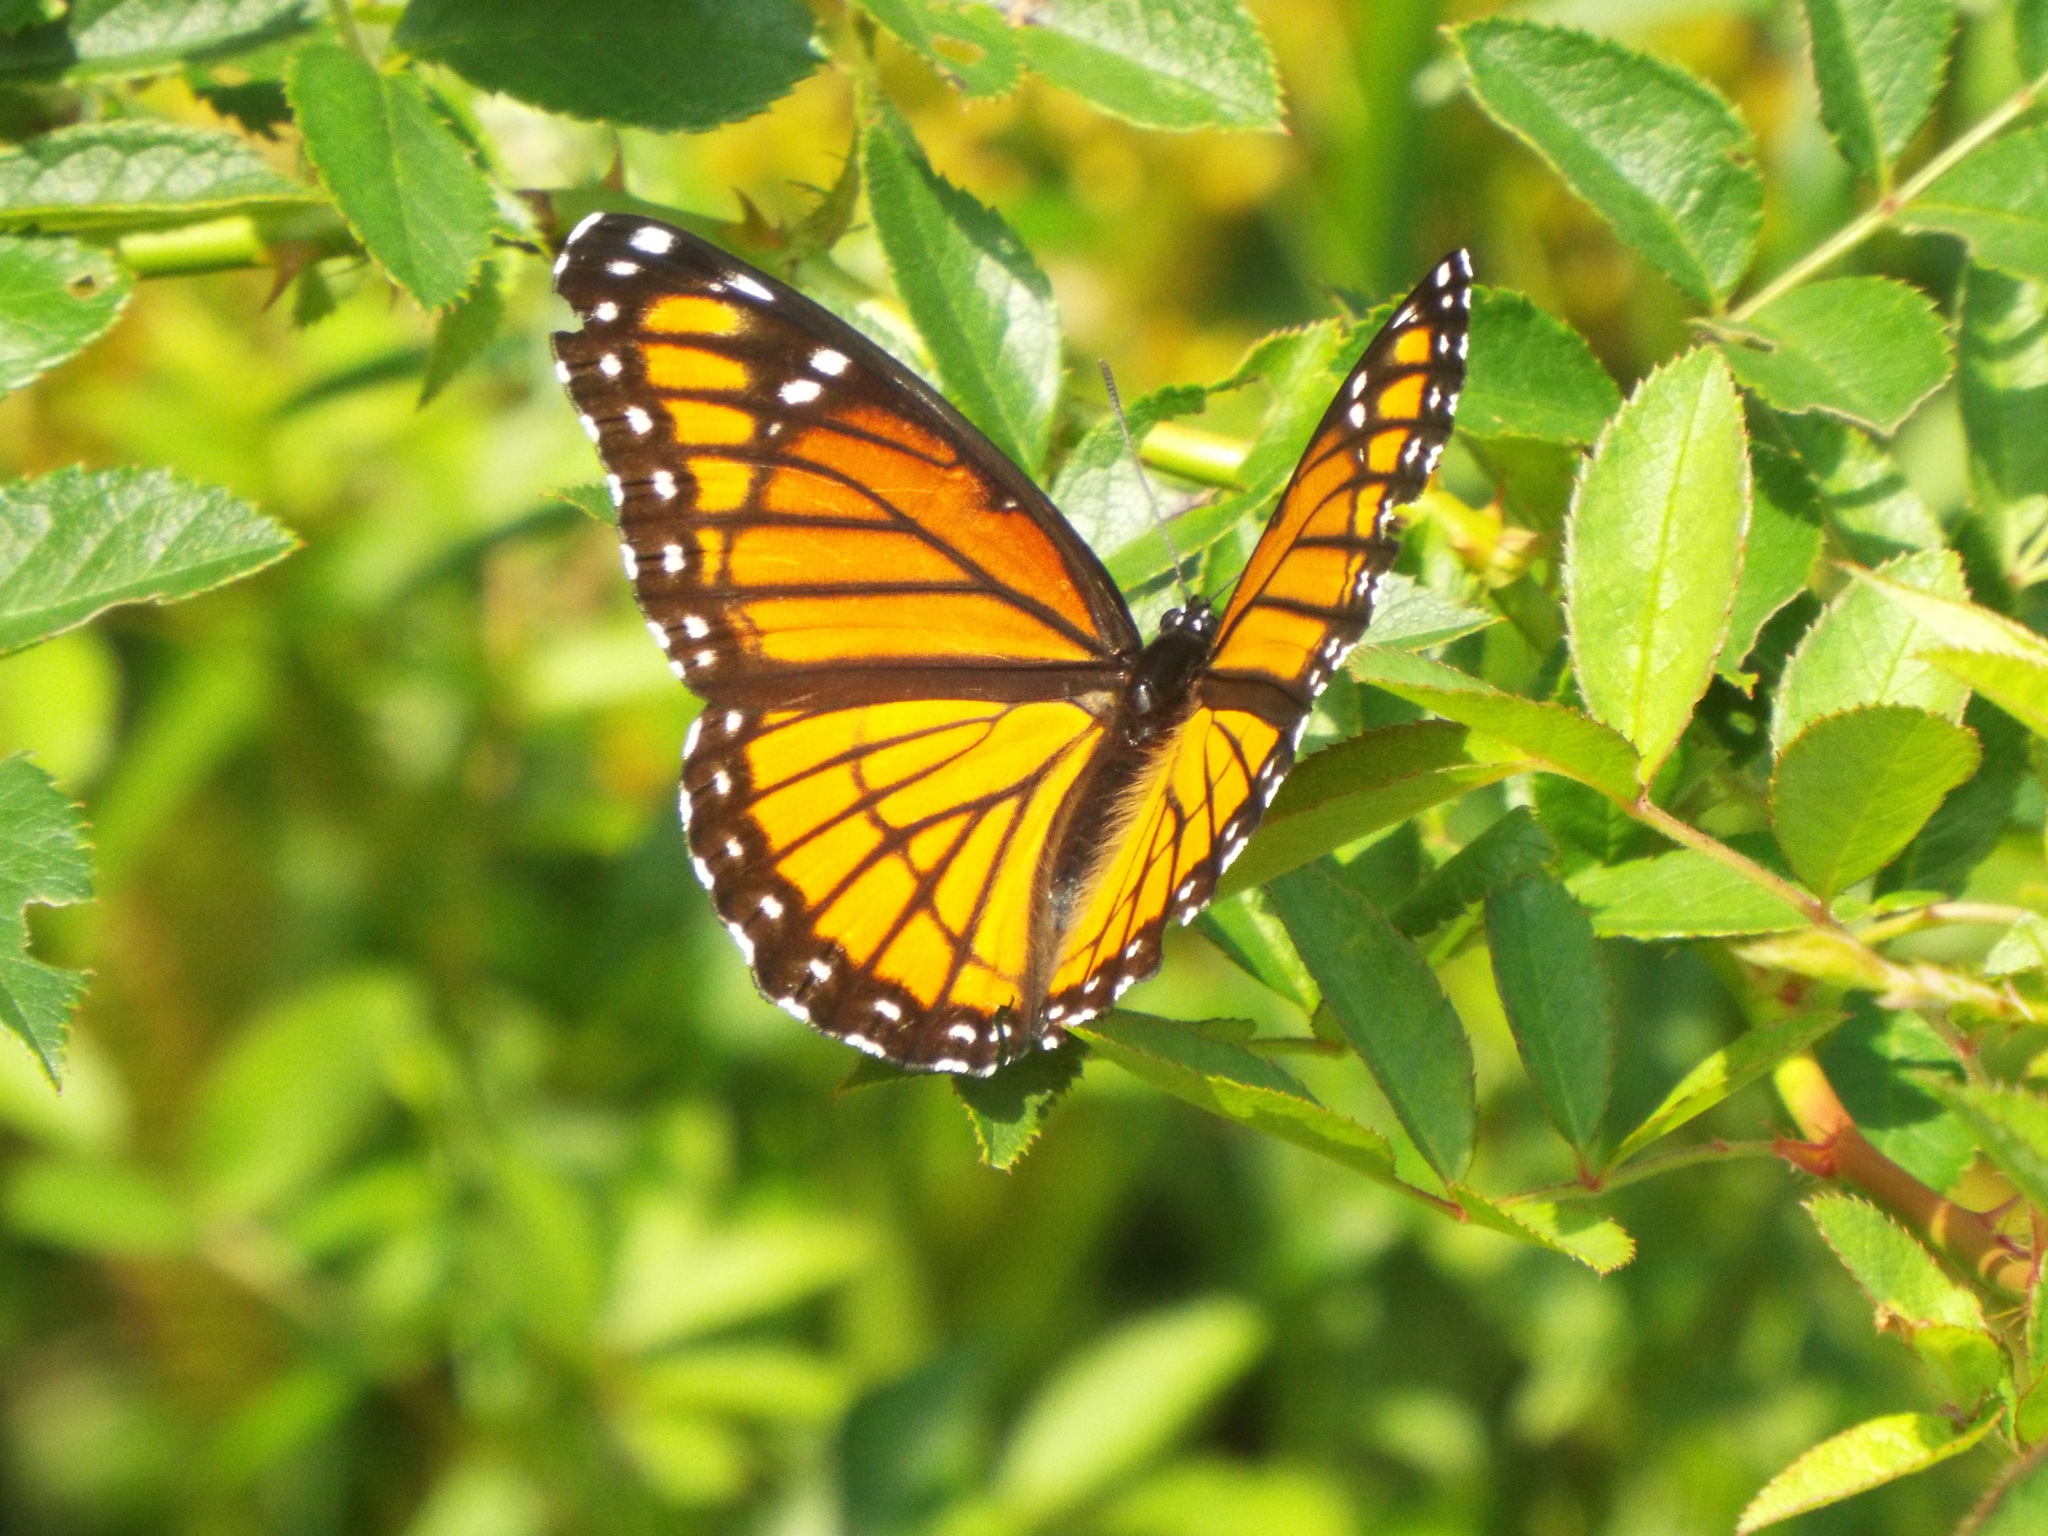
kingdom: Animalia
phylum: Arthropoda
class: Insecta
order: Lepidoptera
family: Nymphalidae
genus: Limenitis
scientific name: Limenitis archippus
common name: Viceroy
